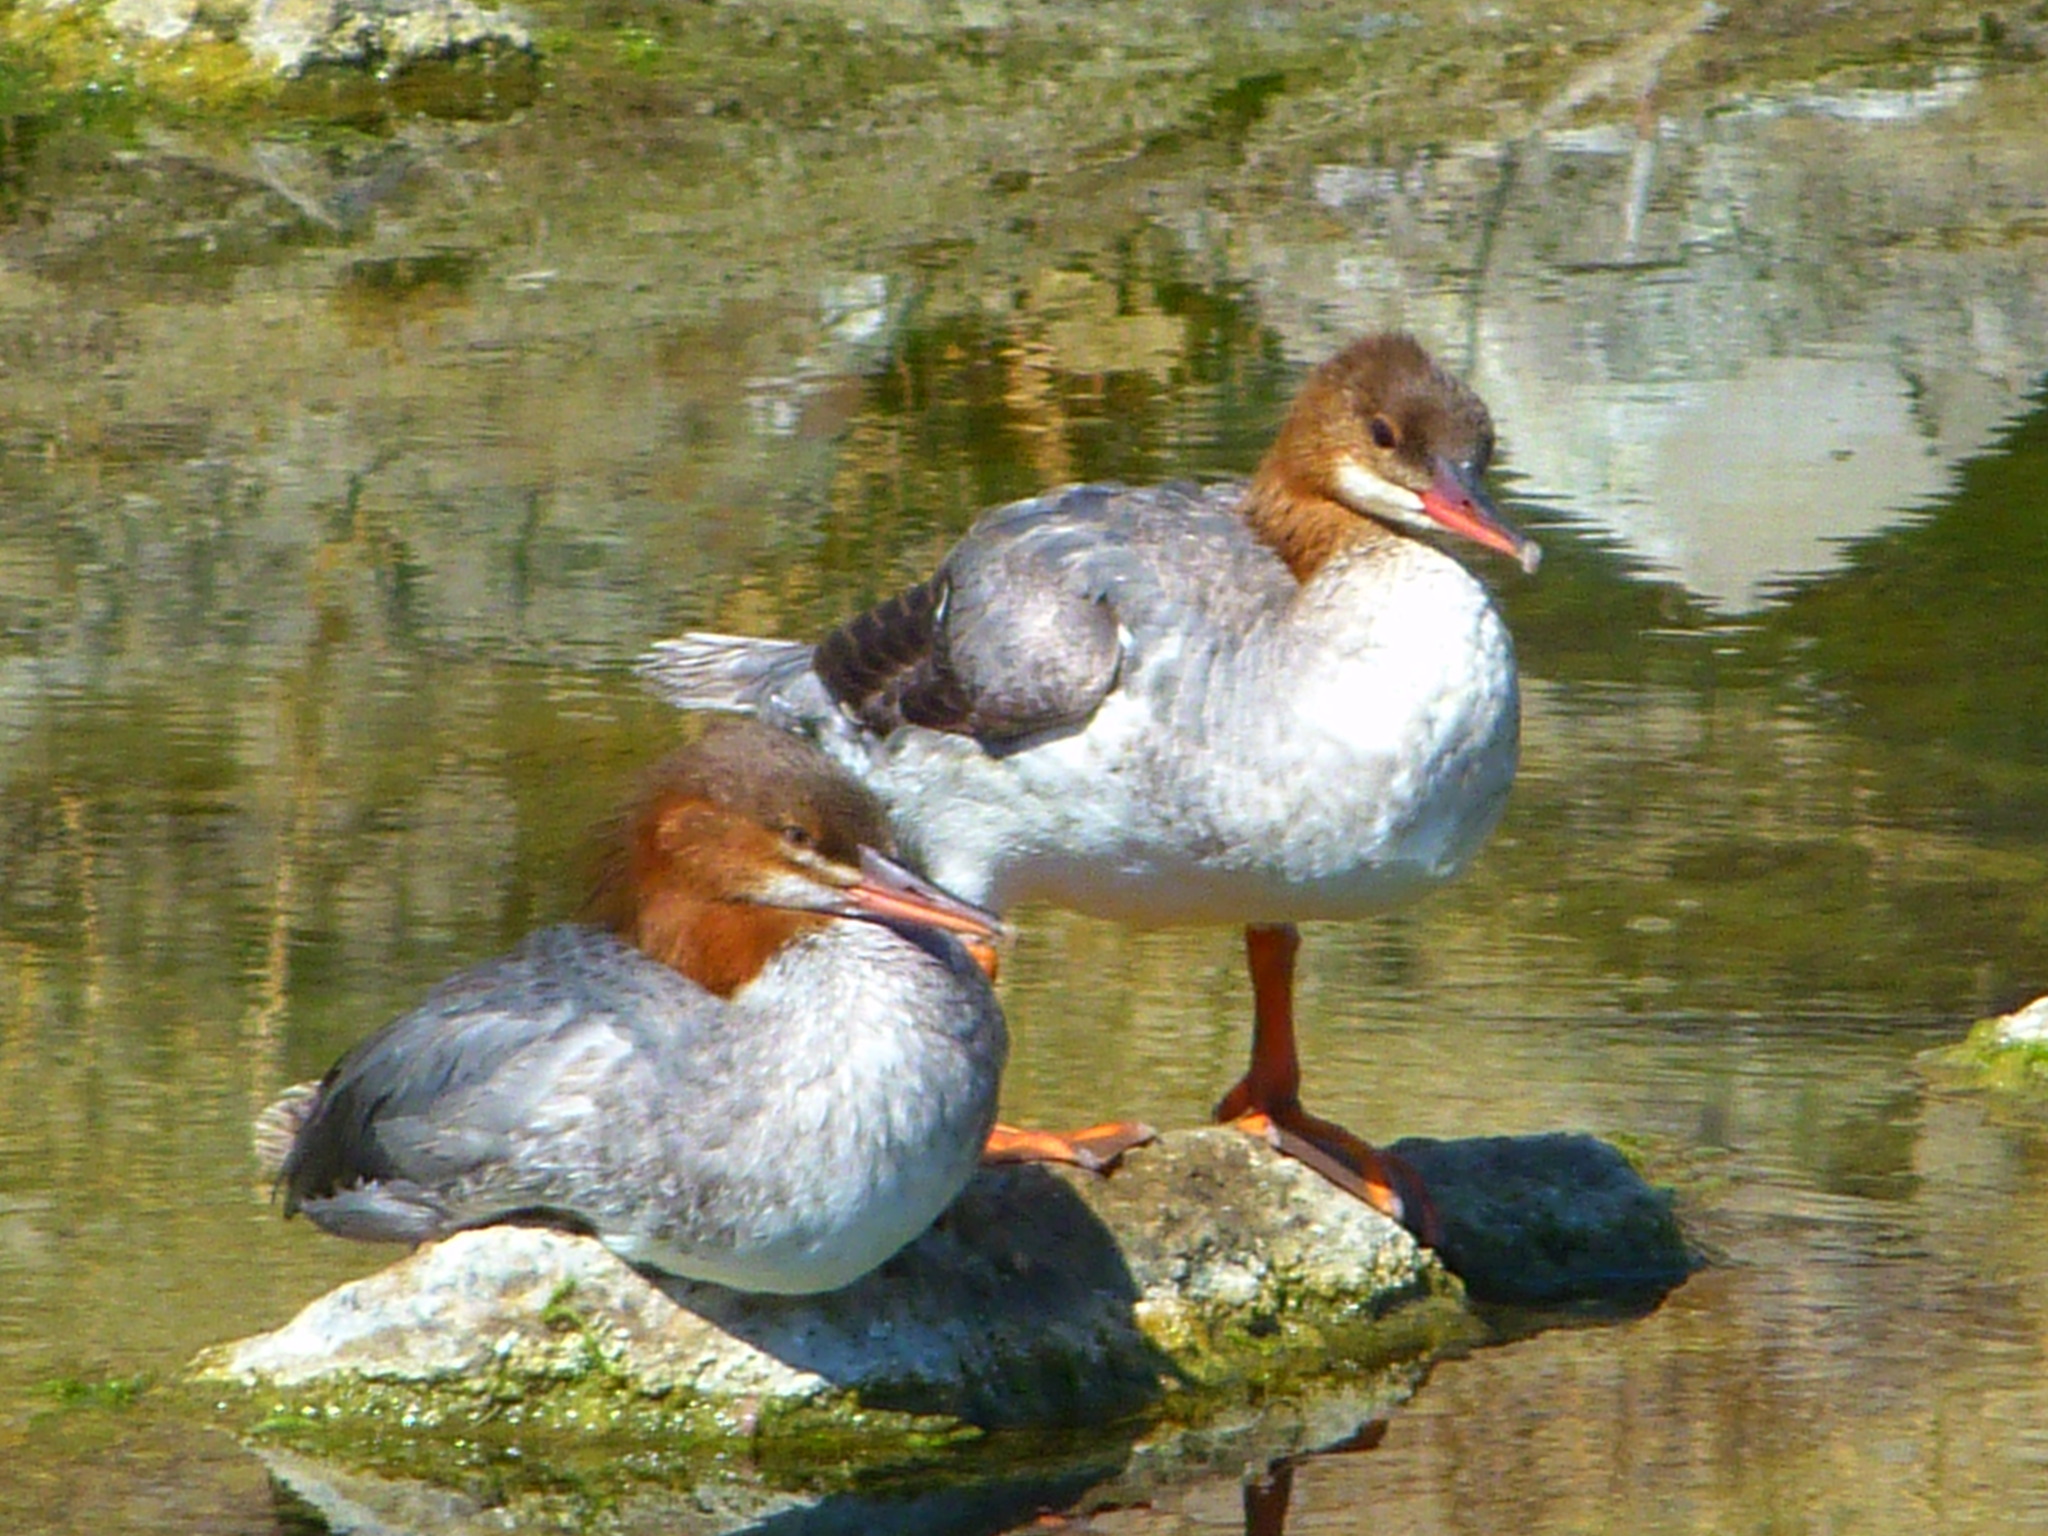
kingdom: Animalia
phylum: Chordata
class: Aves
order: Anseriformes
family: Anatidae
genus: Mergus
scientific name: Mergus merganser
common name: Common merganser
